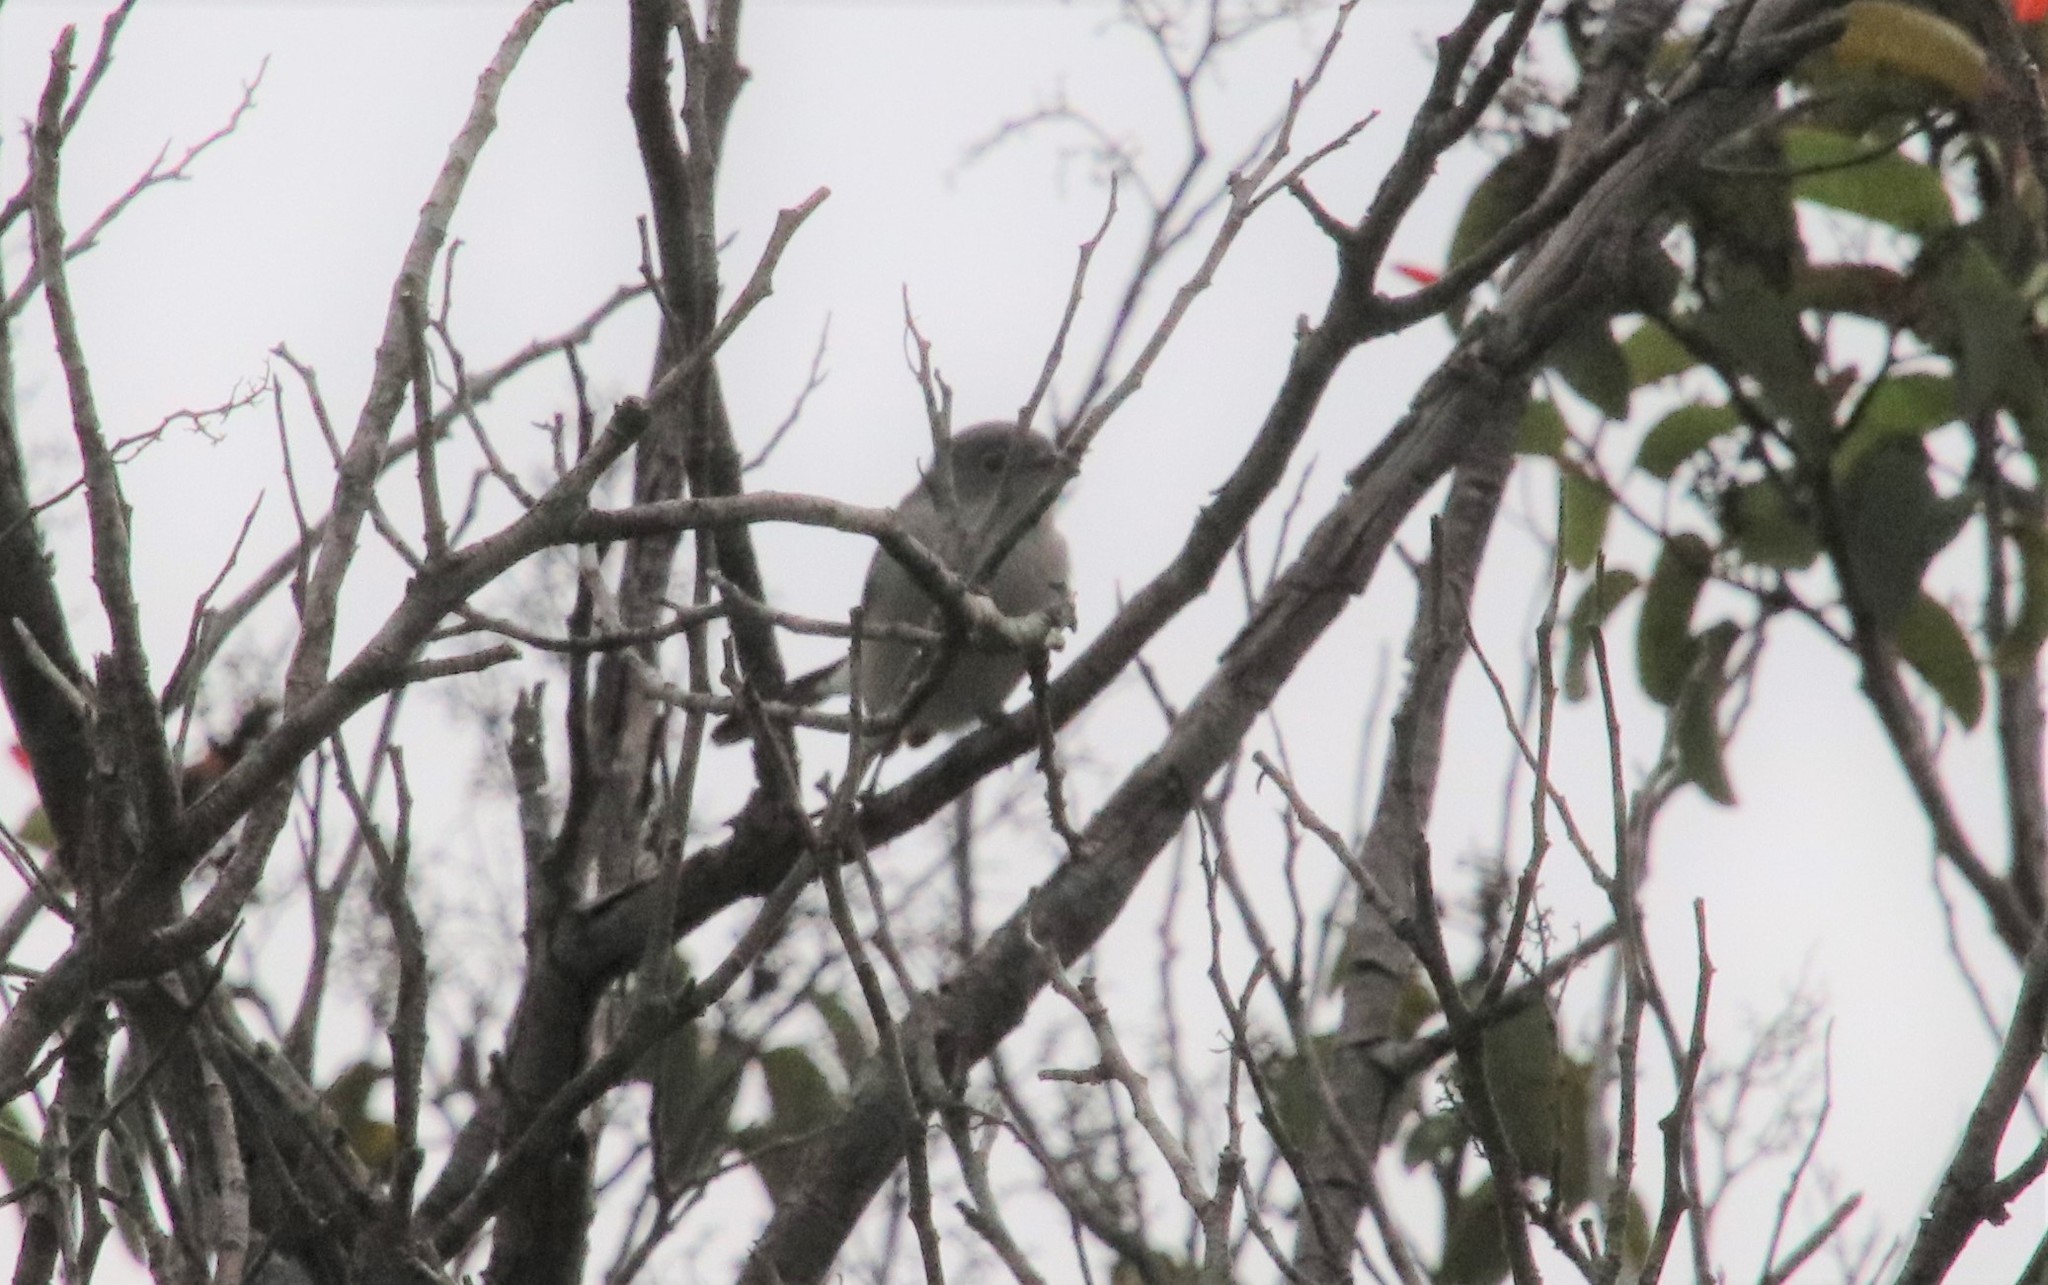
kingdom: Animalia
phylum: Chordata
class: Aves
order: Passeriformes
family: Polioptilidae
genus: Polioptila
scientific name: Polioptila caerulea
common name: Blue-gray gnatcatcher
